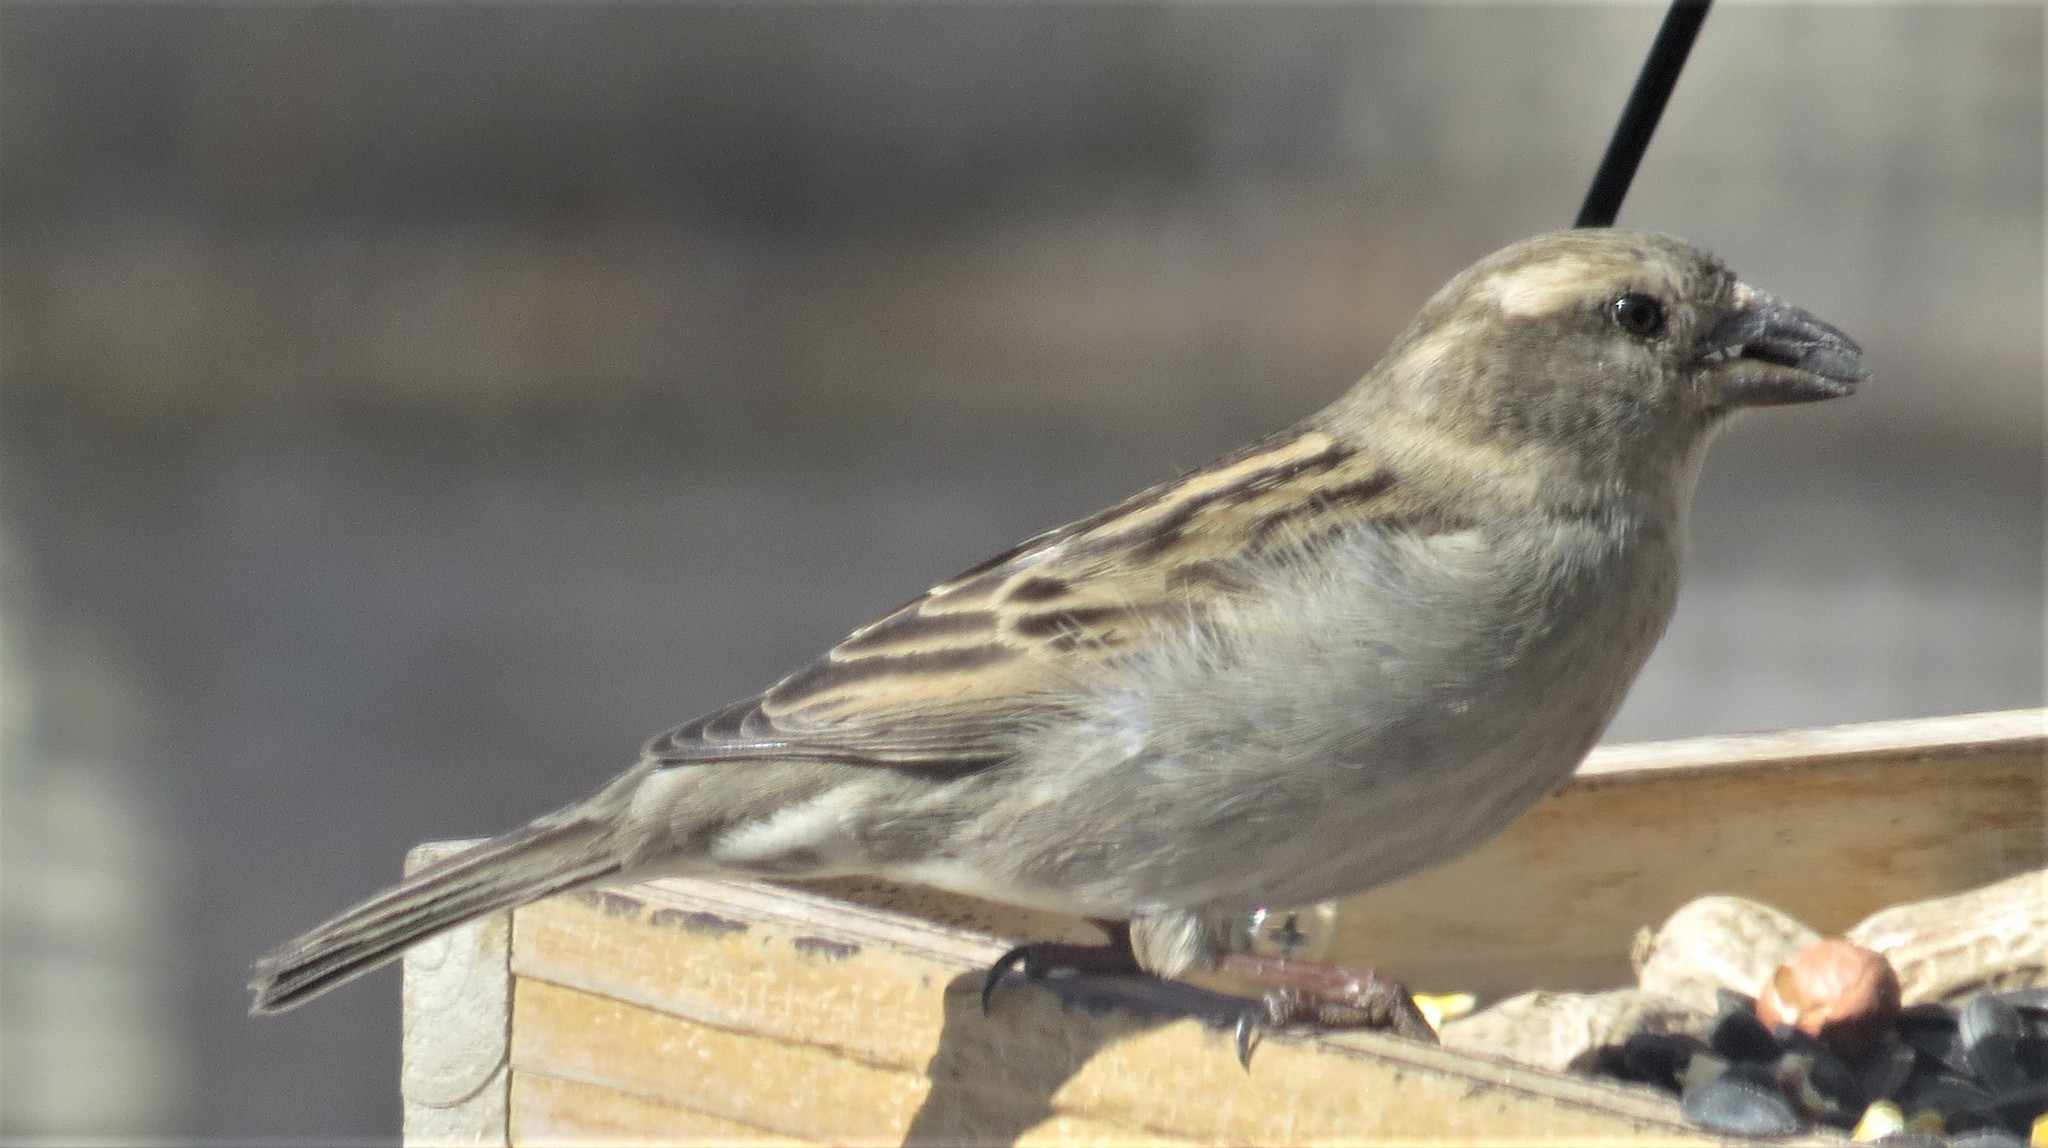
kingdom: Animalia
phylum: Chordata
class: Aves
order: Passeriformes
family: Passeridae
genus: Passer
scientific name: Passer domesticus
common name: House sparrow
